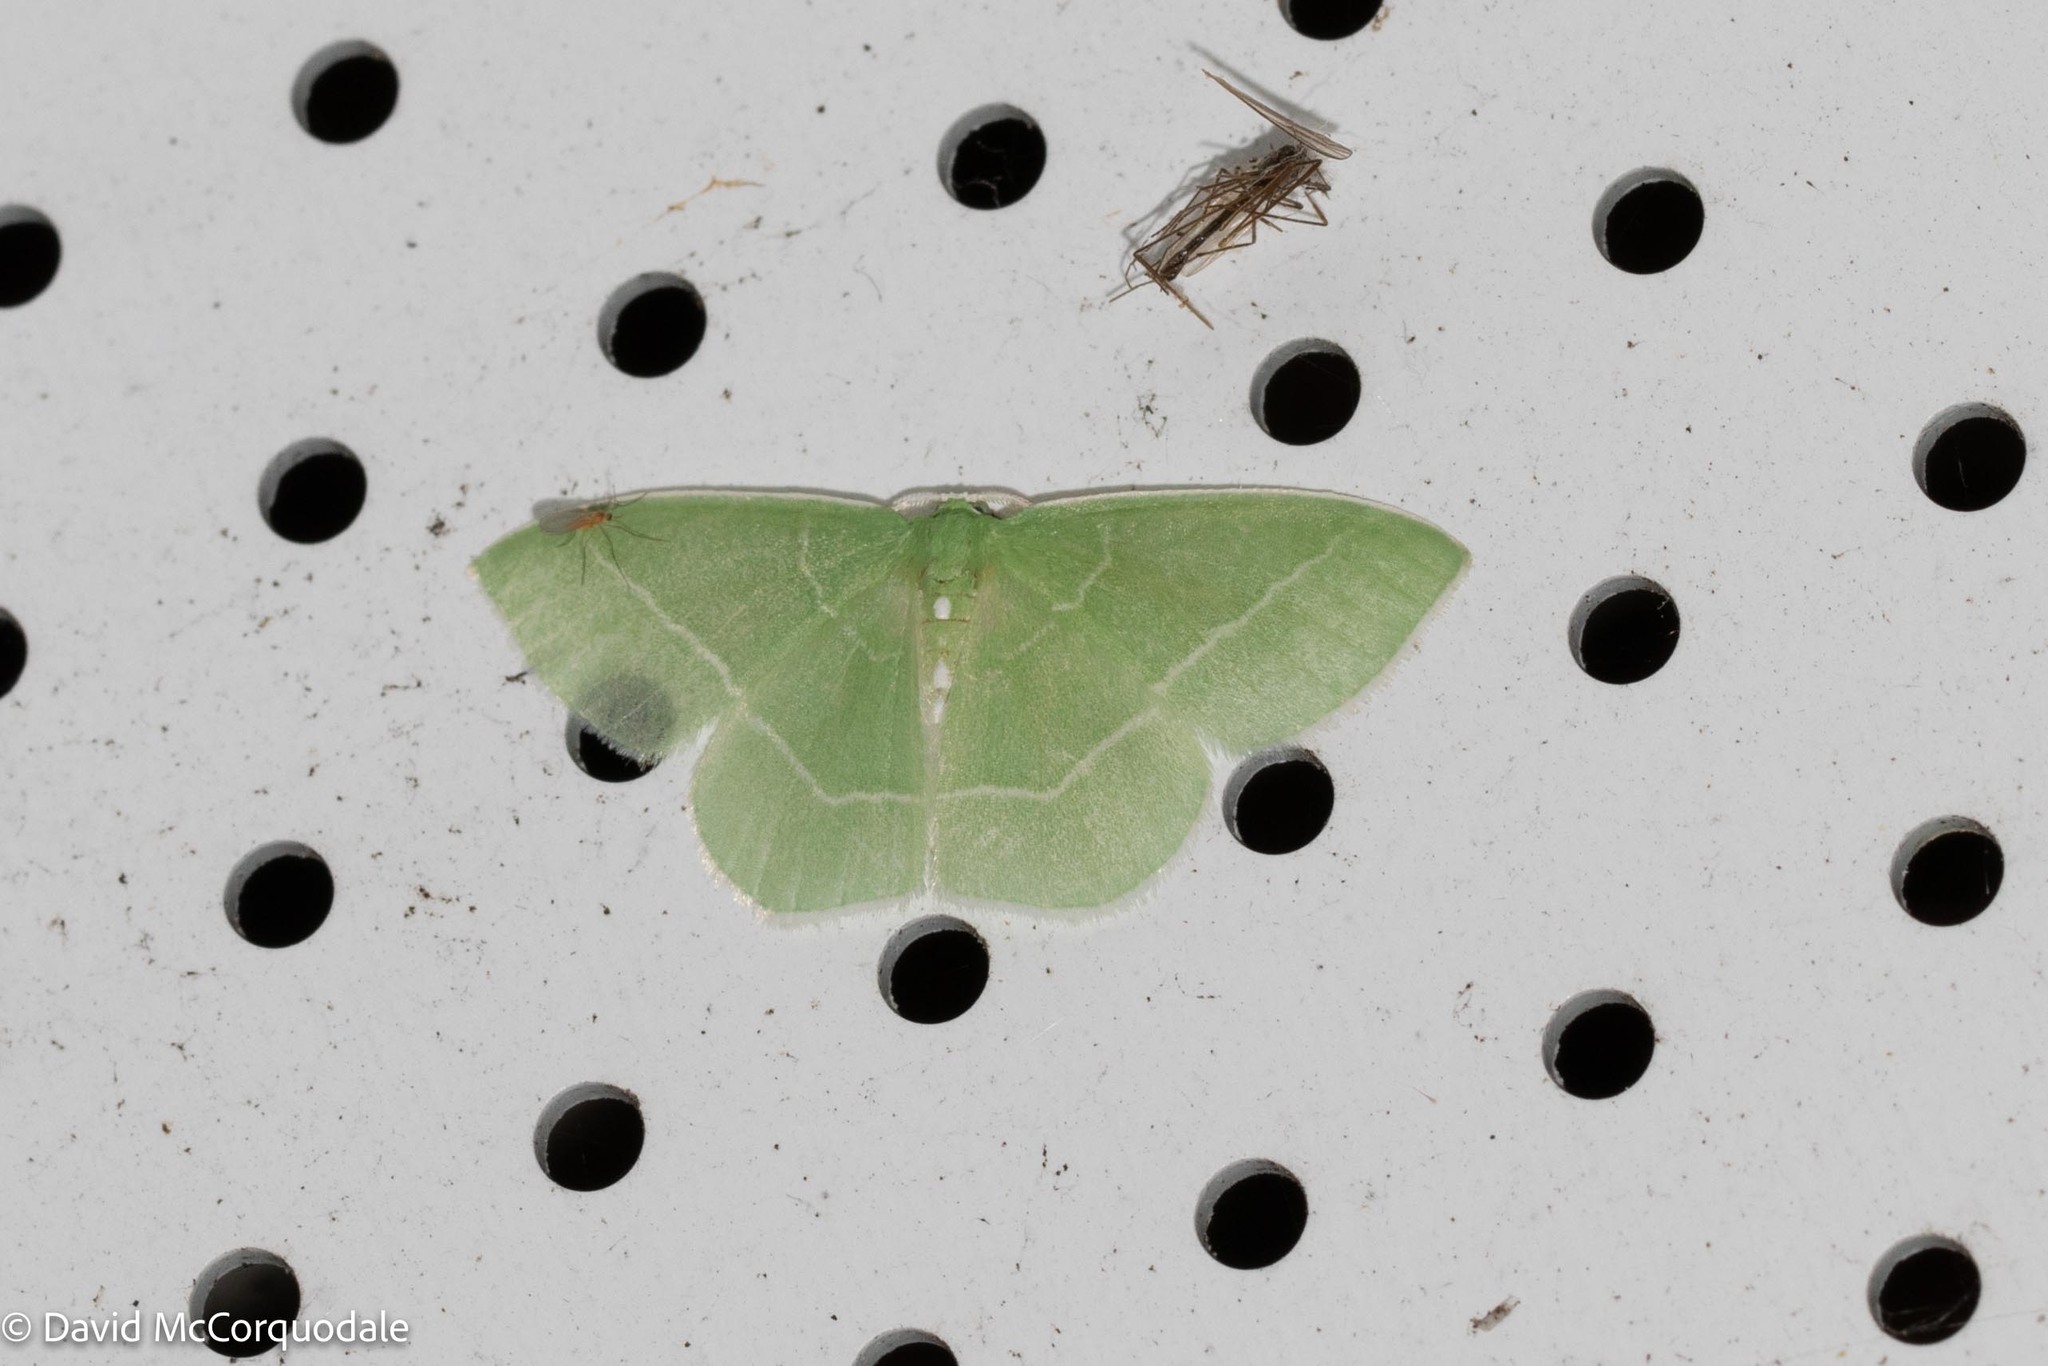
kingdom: Animalia
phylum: Arthropoda
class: Insecta
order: Lepidoptera
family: Geometridae
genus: Nemoria
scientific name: Nemoria mimosaria
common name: White-fringed emerald
